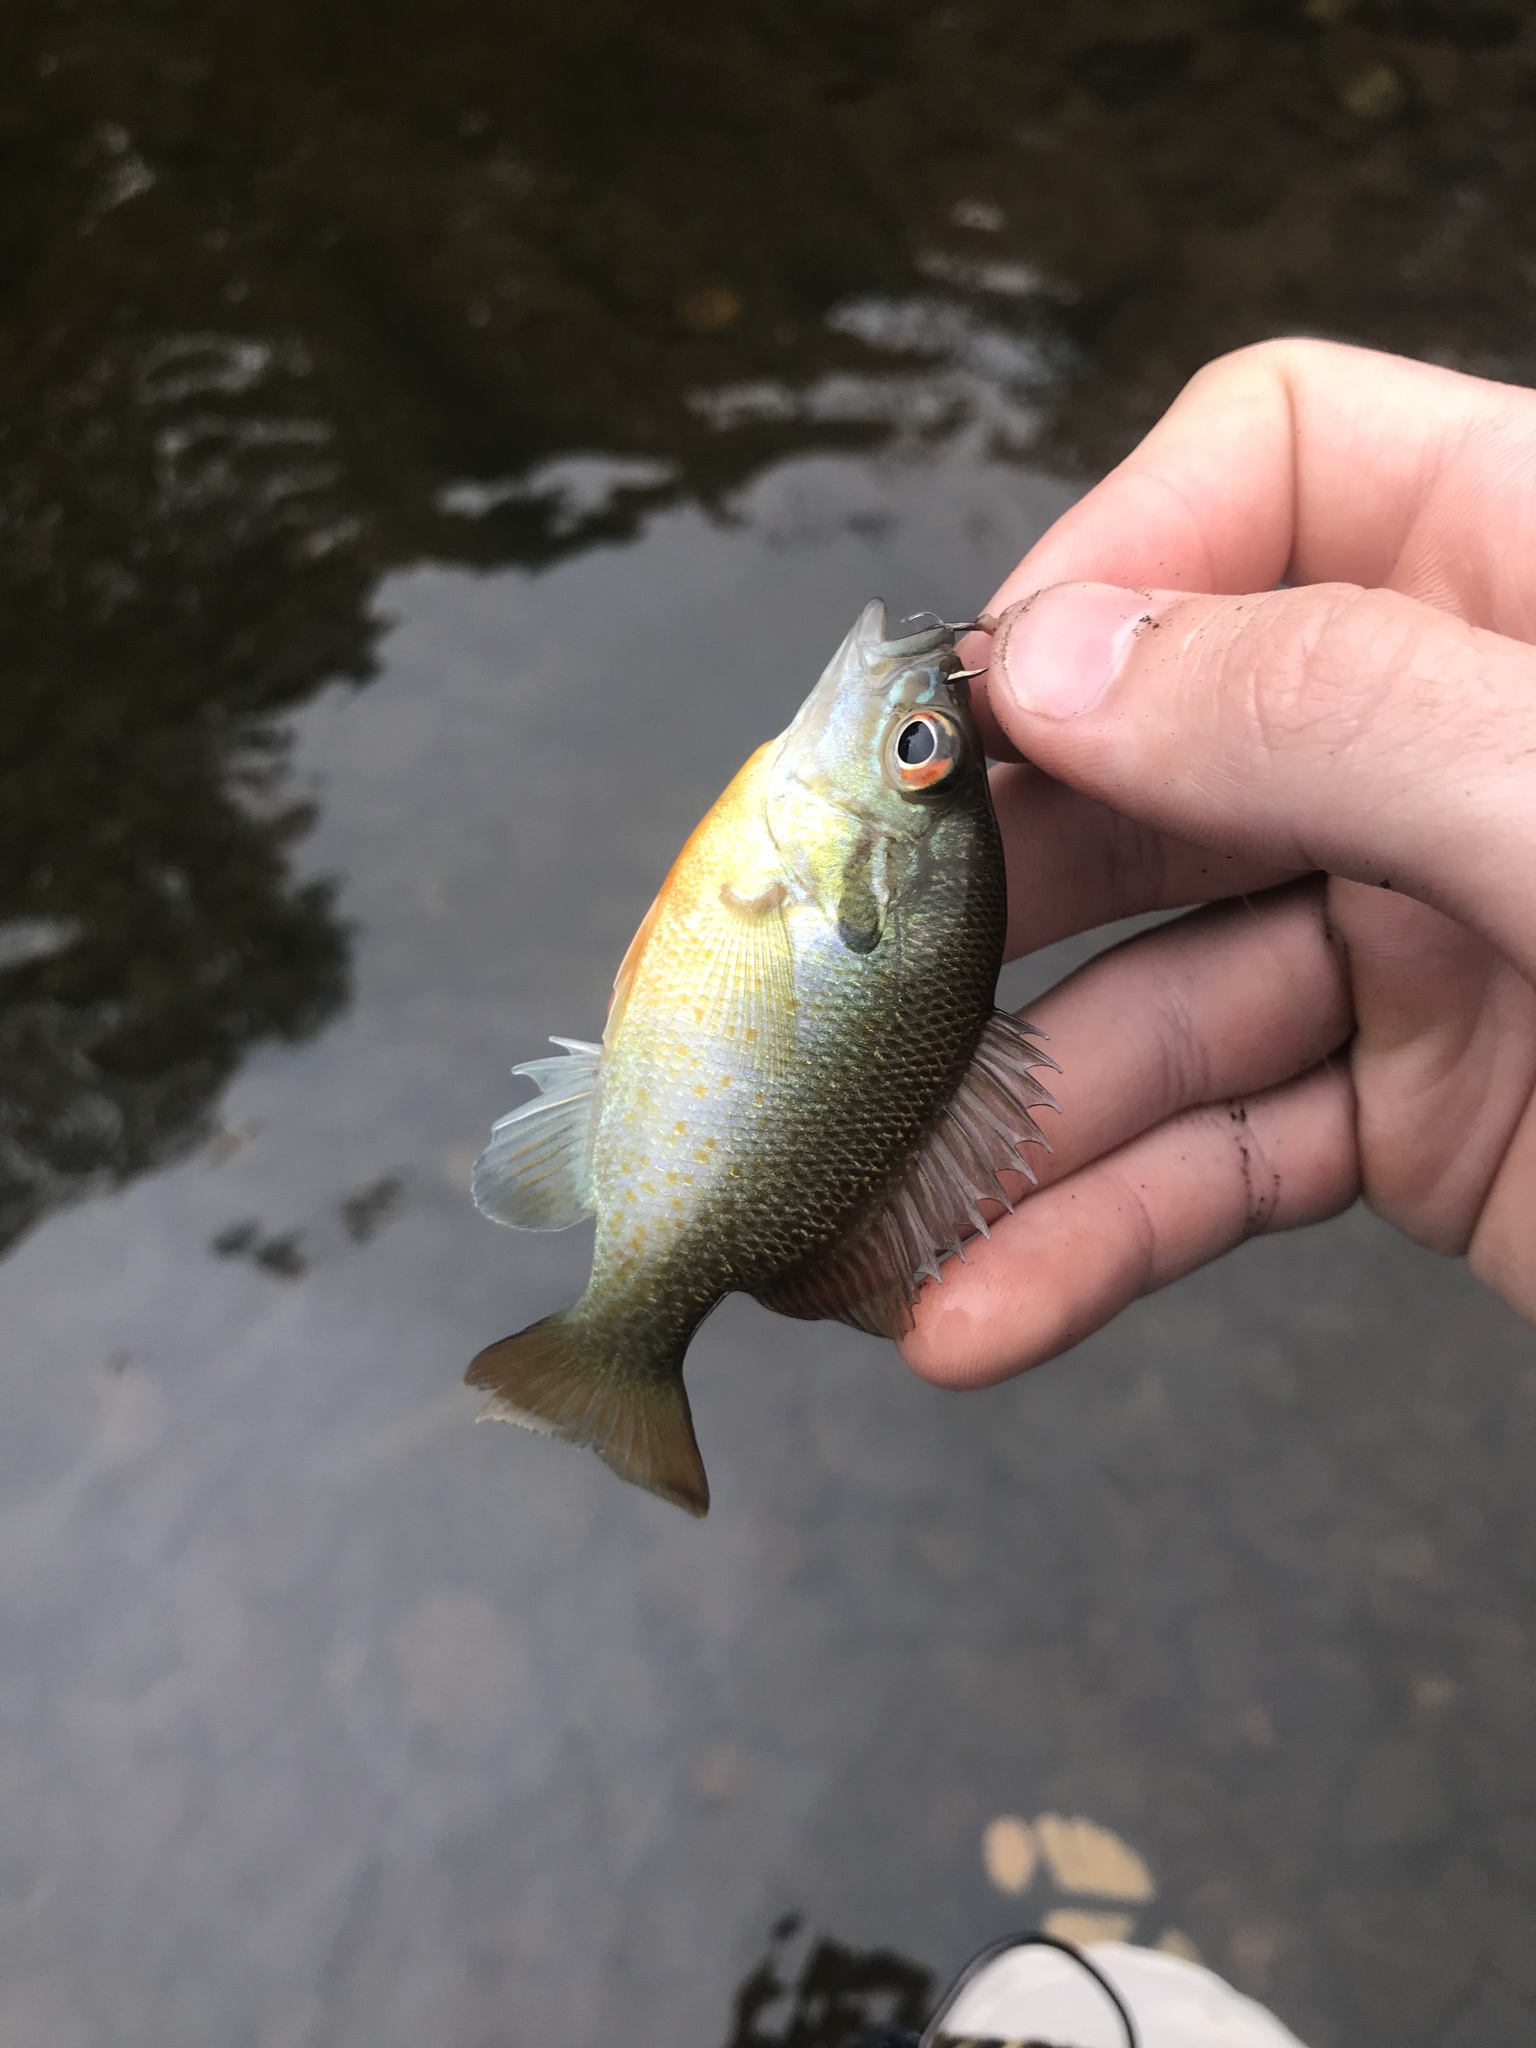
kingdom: Animalia
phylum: Chordata
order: Perciformes
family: Centrarchidae
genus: Lepomis
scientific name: Lepomis auritus
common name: Redbreast sunfish
